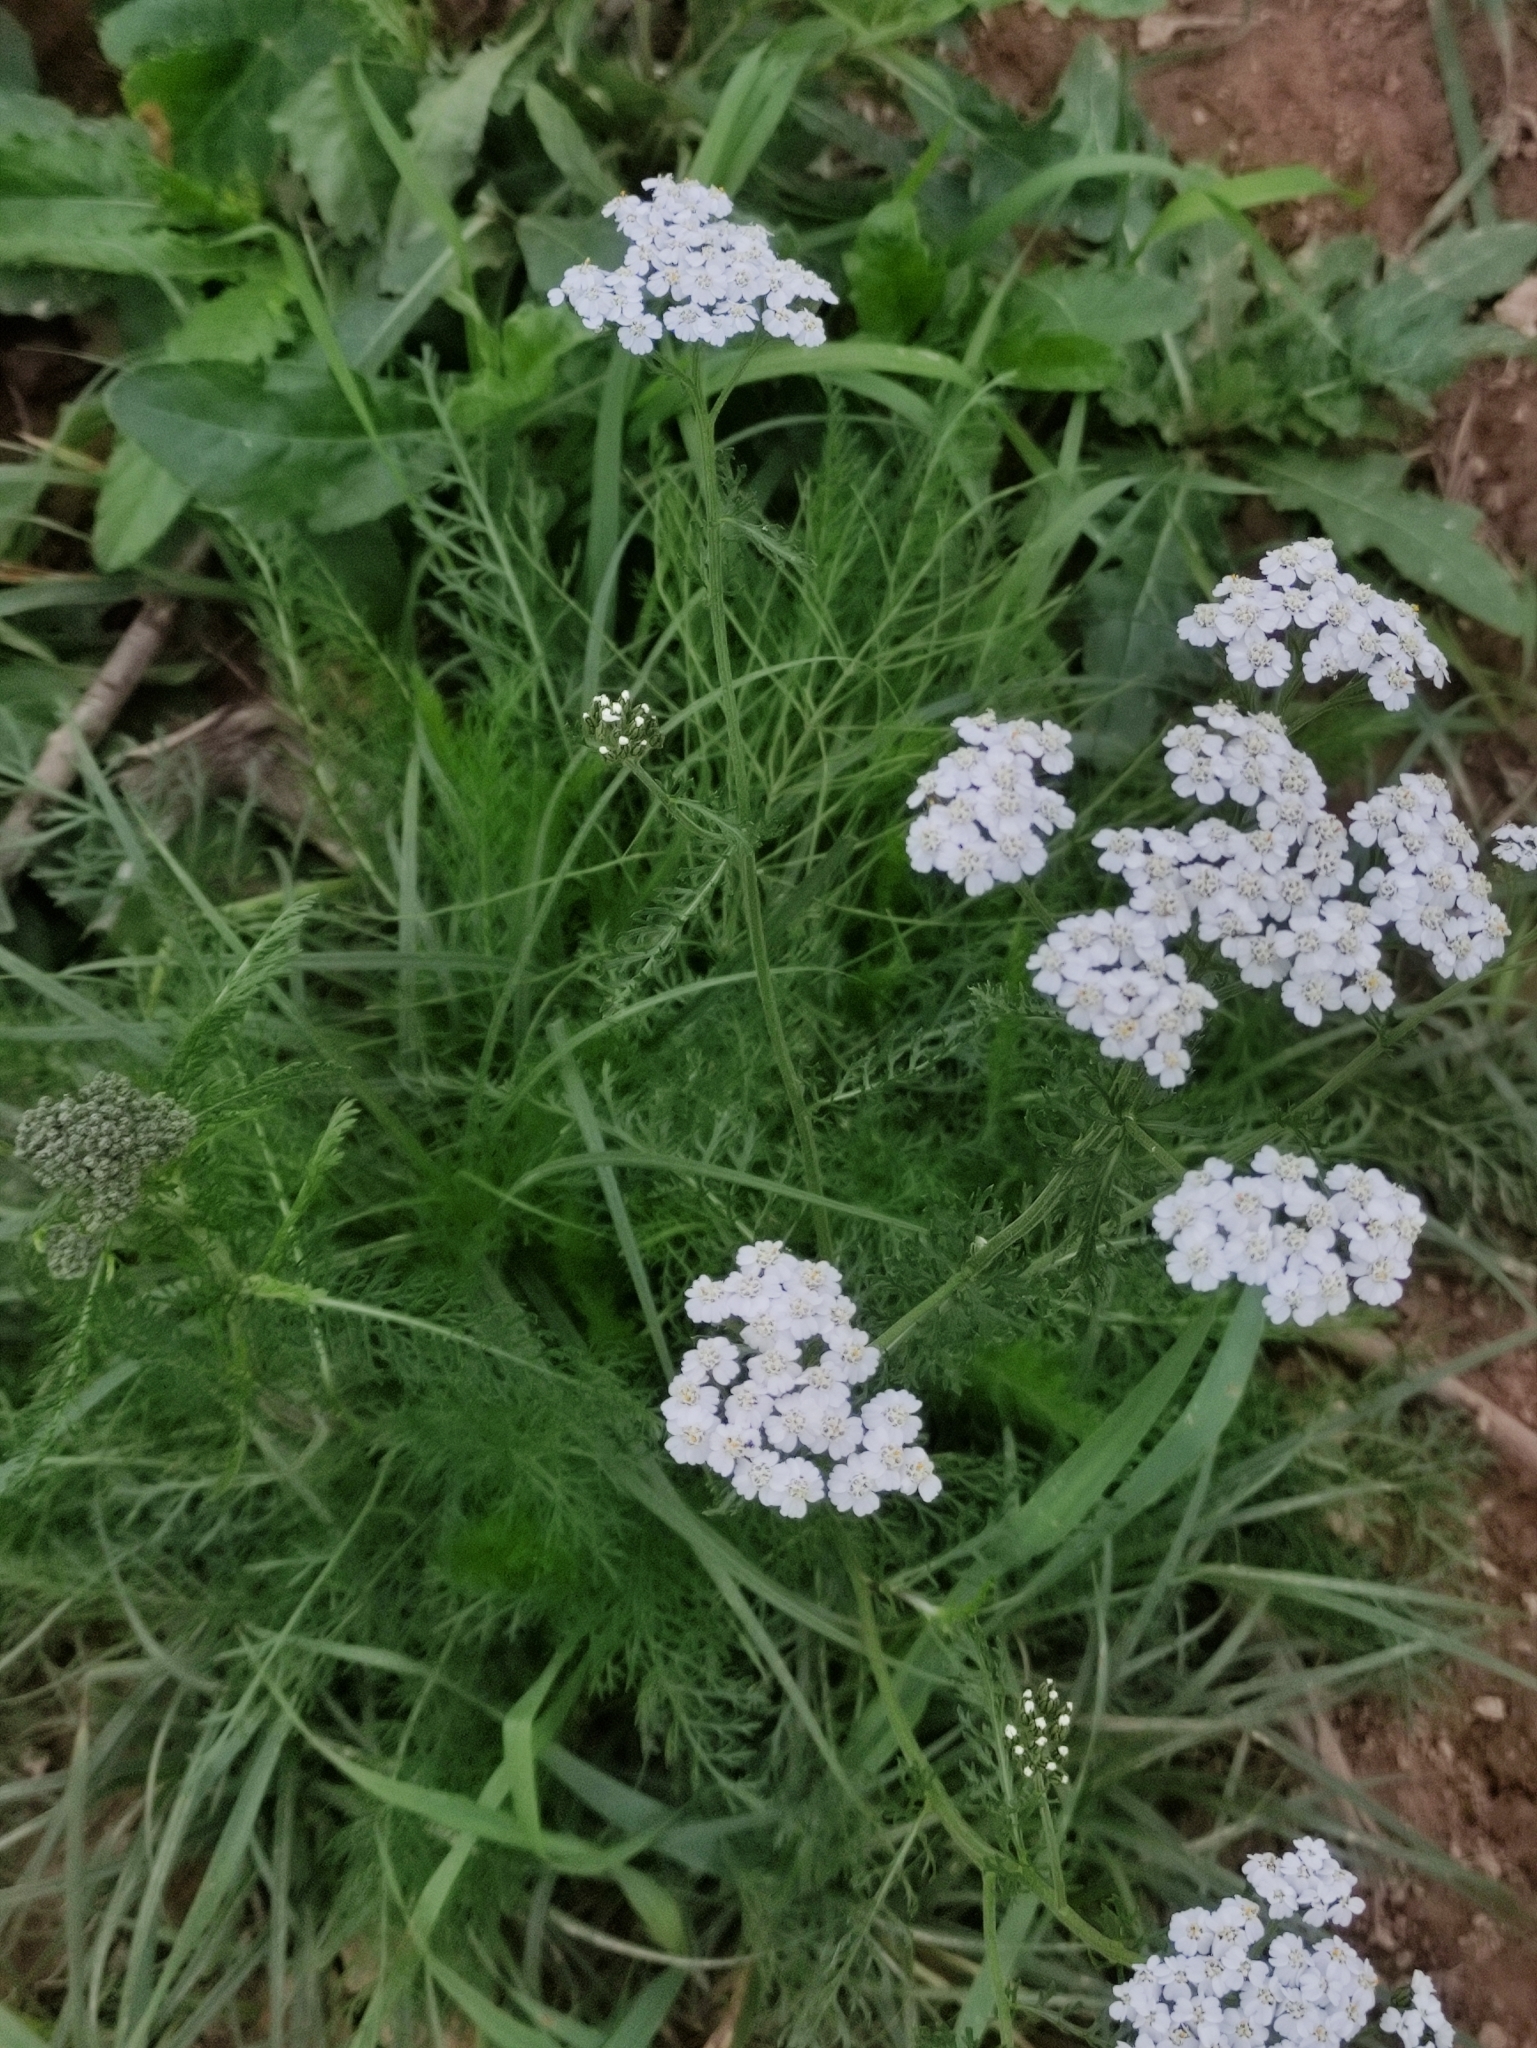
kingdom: Plantae
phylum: Tracheophyta
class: Magnoliopsida
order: Asterales
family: Asteraceae
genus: Achillea
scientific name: Achillea millefolium
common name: Yarrow
